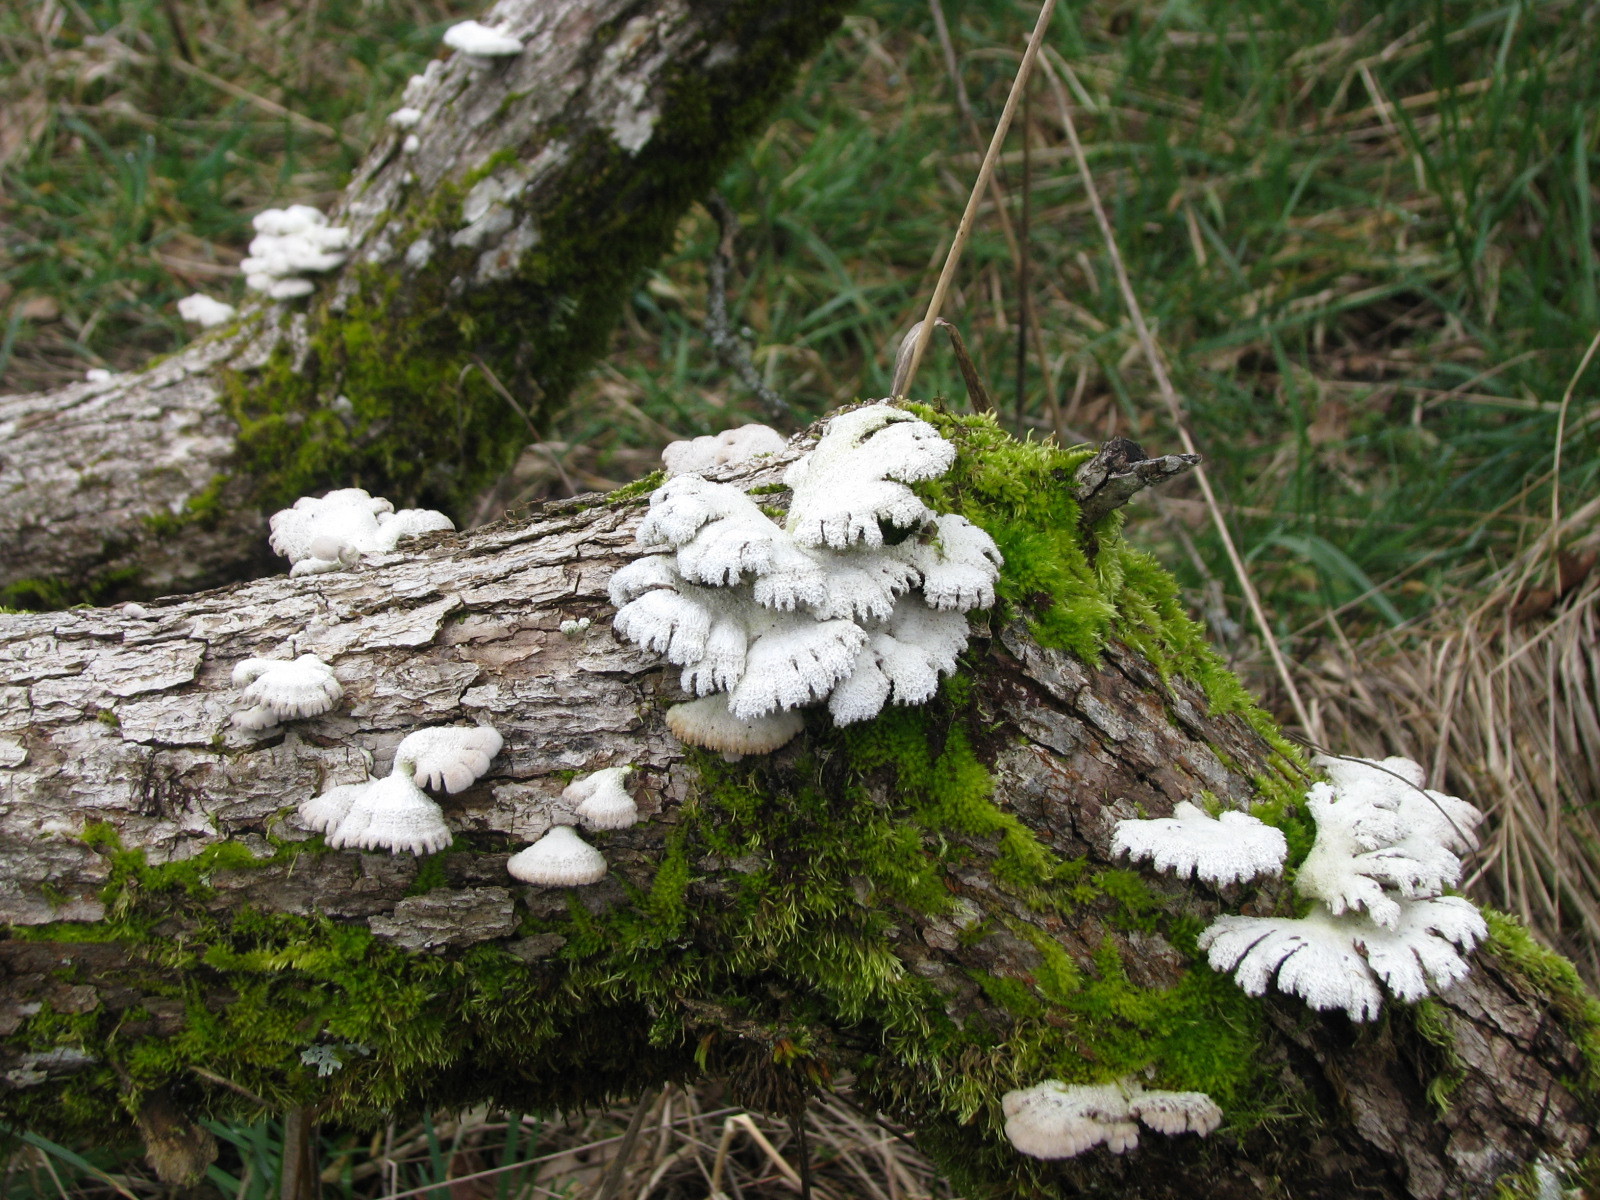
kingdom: Fungi
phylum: Basidiomycota
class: Agaricomycetes
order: Agaricales
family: Schizophyllaceae
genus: Schizophyllum
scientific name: Schizophyllum commune
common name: Common porecrust
